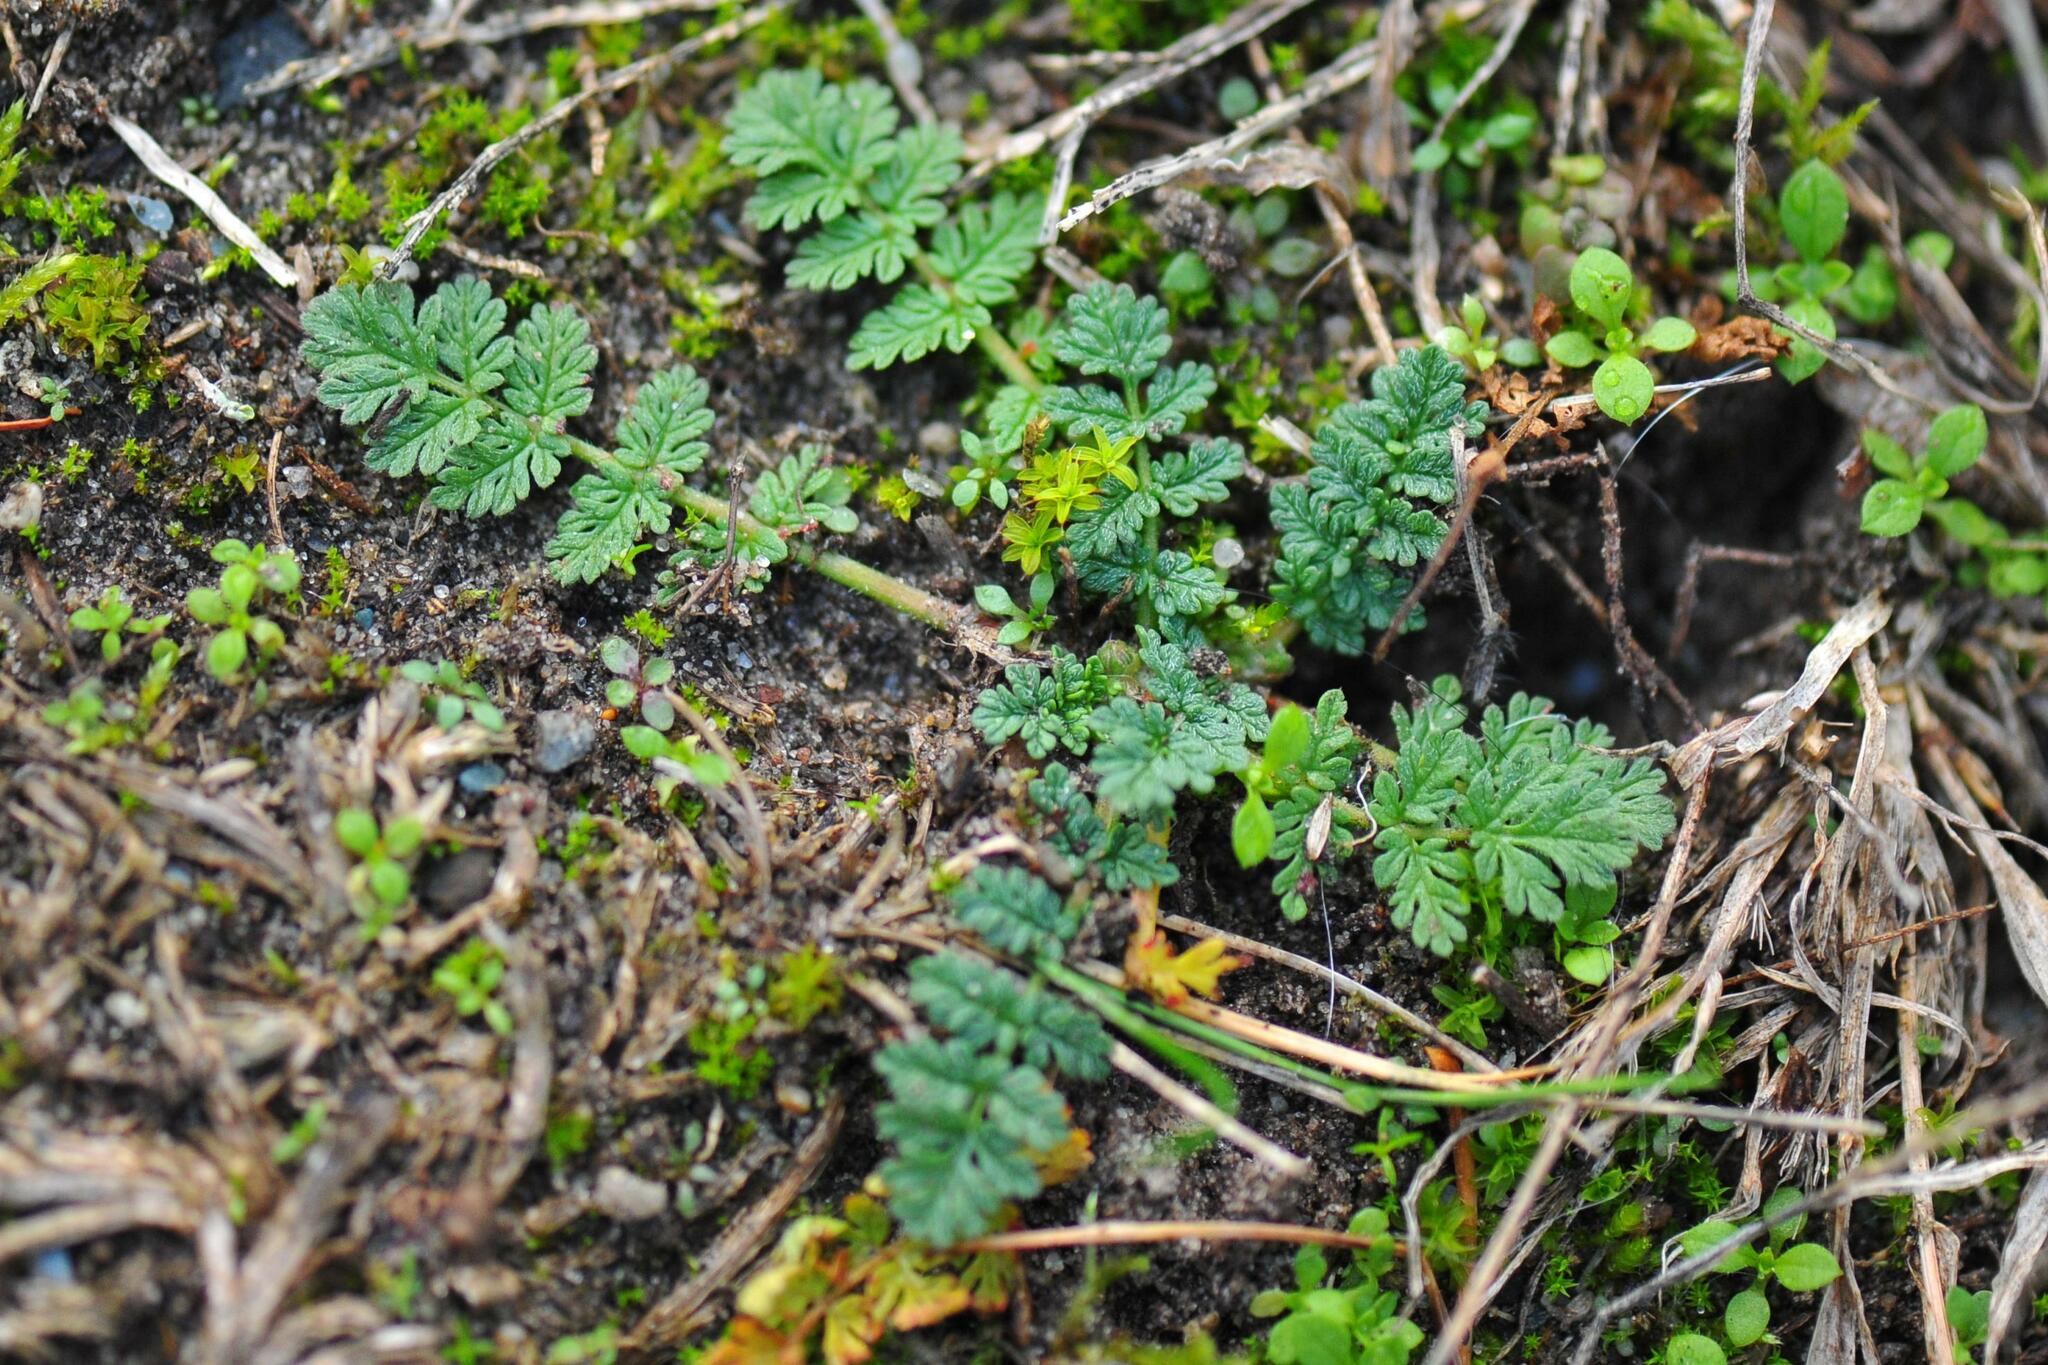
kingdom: Plantae
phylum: Tracheophyta
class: Magnoliopsida
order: Geraniales
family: Geraniaceae
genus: Erodium
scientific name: Erodium cicutarium
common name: Common stork's-bill
